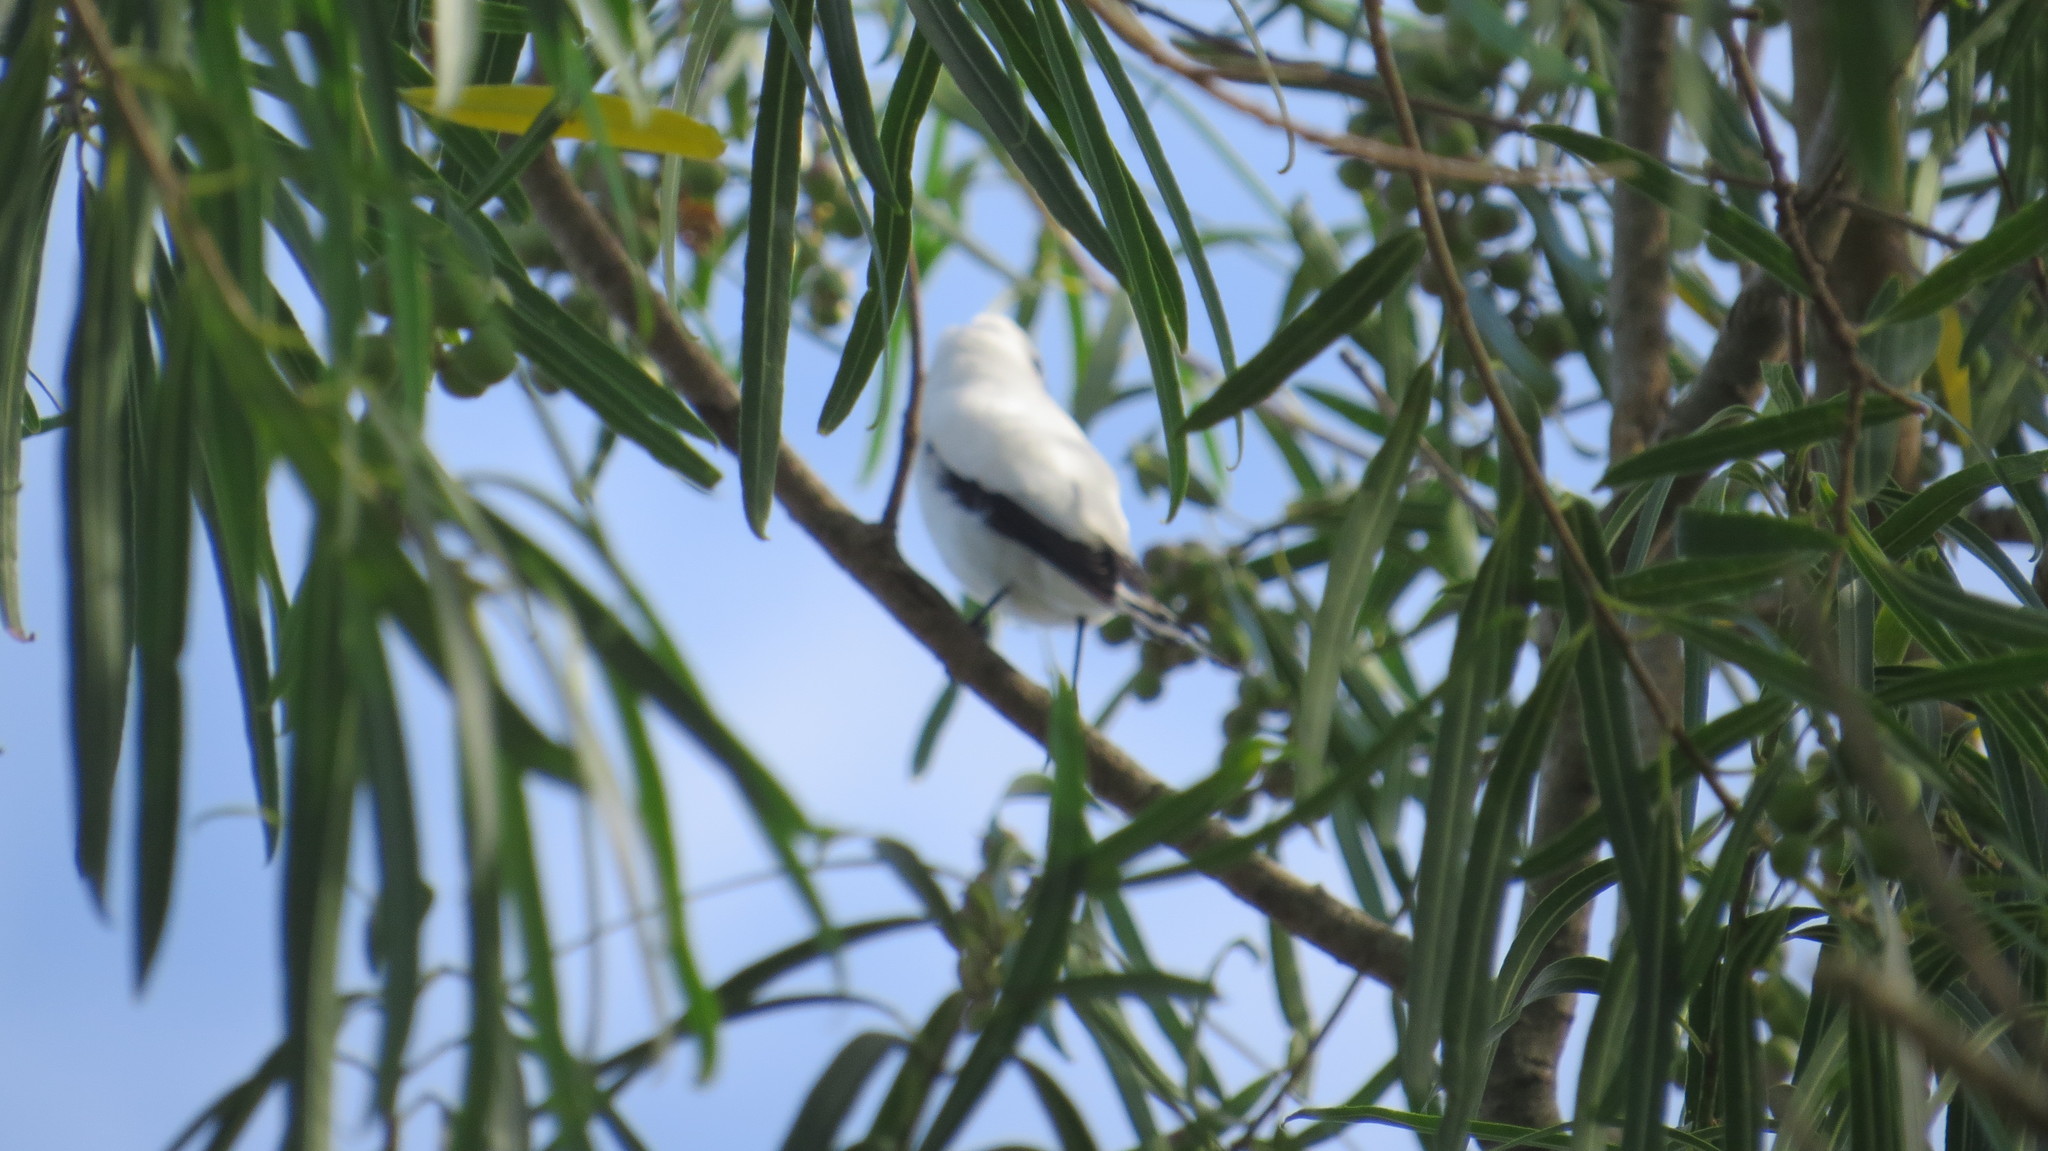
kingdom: Animalia
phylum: Chordata
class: Aves
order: Passeriformes
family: Tyrannidae
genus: Xolmis
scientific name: Xolmis irupero
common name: White monjita
